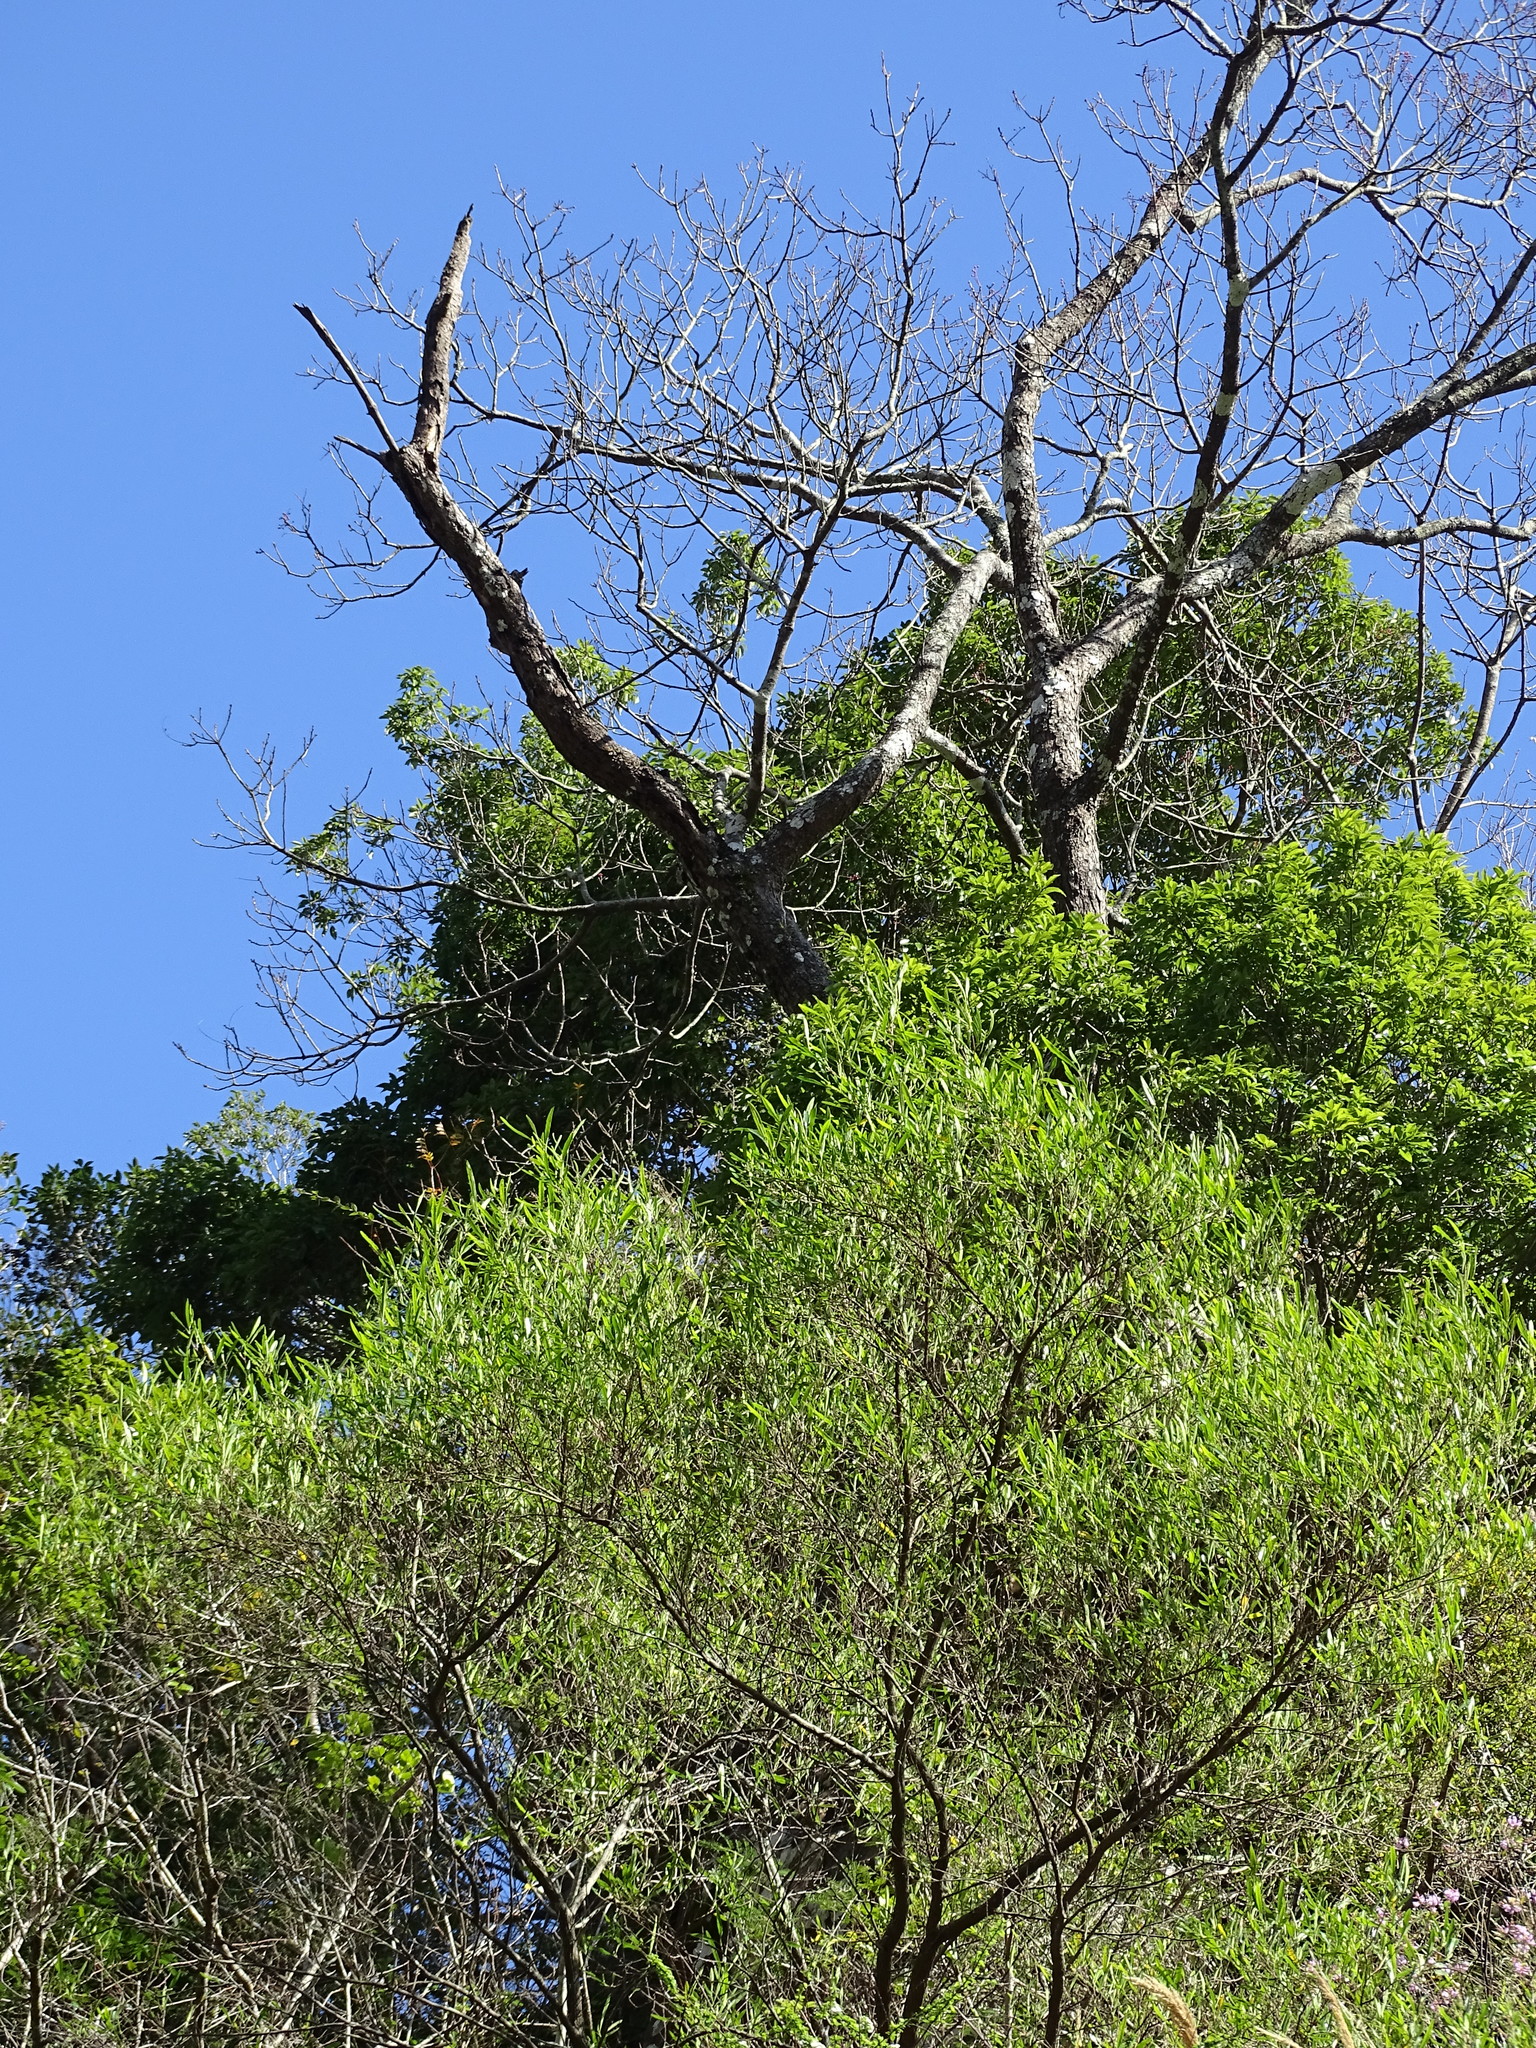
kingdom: Plantae
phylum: Tracheophyta
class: Magnoliopsida
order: Sapindales
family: Sapindaceae
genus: Dodonaea
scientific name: Dodonaea viscosa
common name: Hopbush
